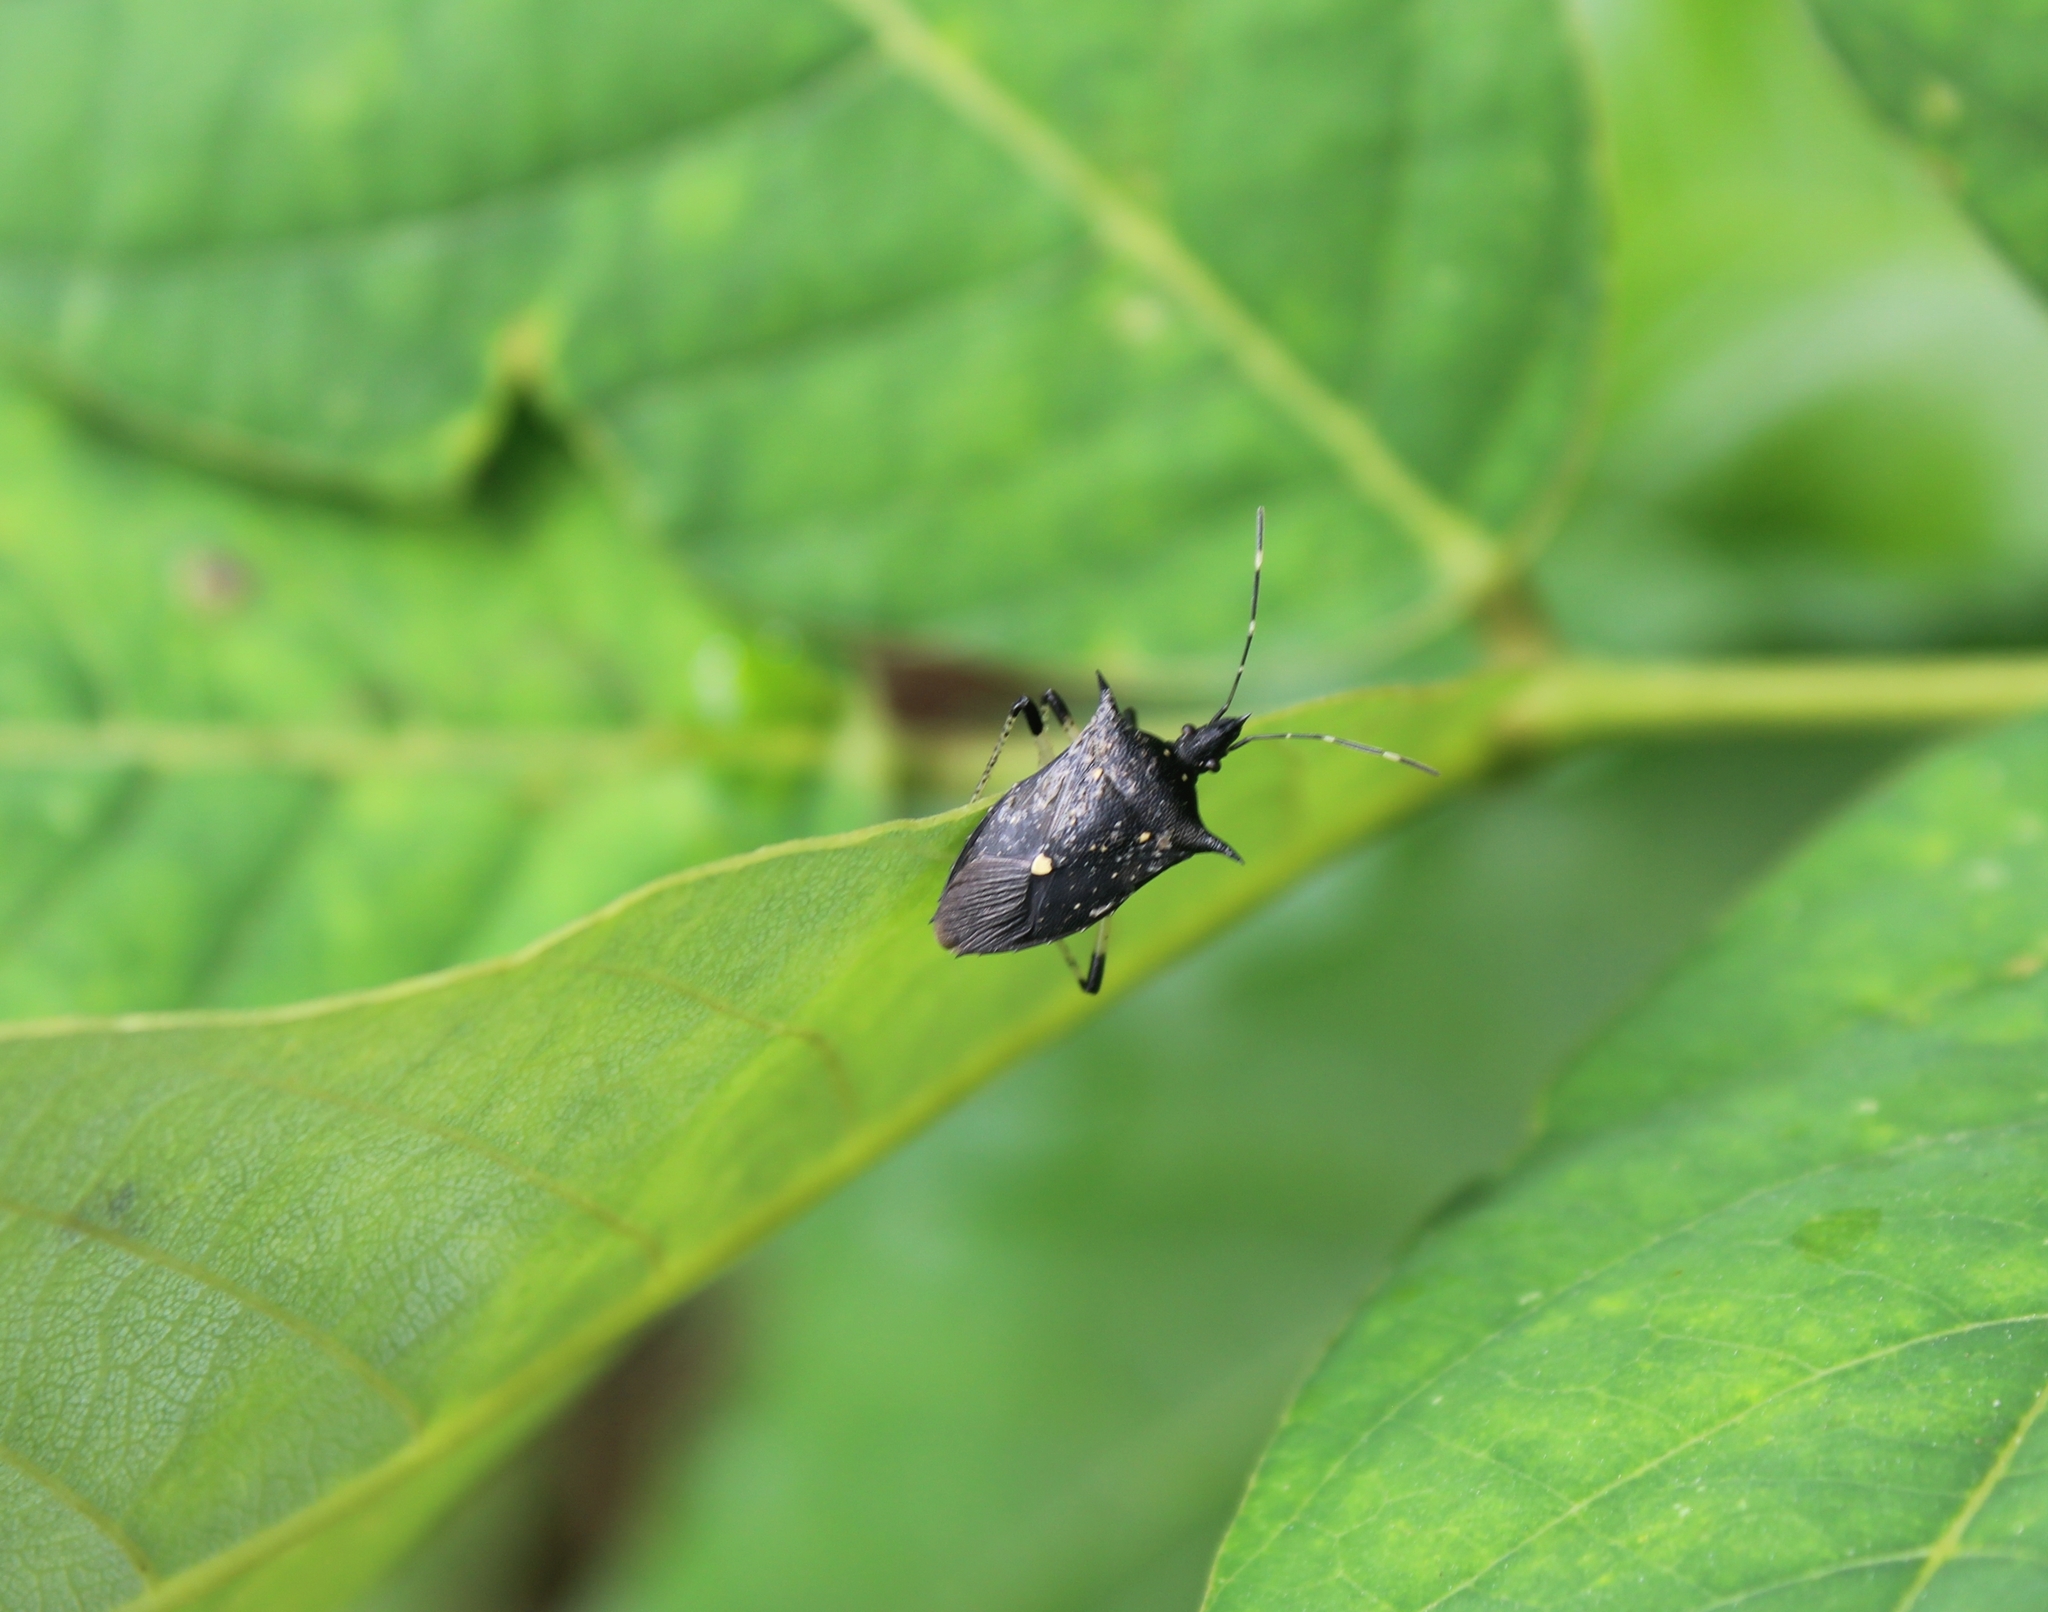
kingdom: Animalia
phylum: Arthropoda
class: Insecta
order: Hemiptera
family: Pentatomidae
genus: Proxys
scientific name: Proxys punctulatus
